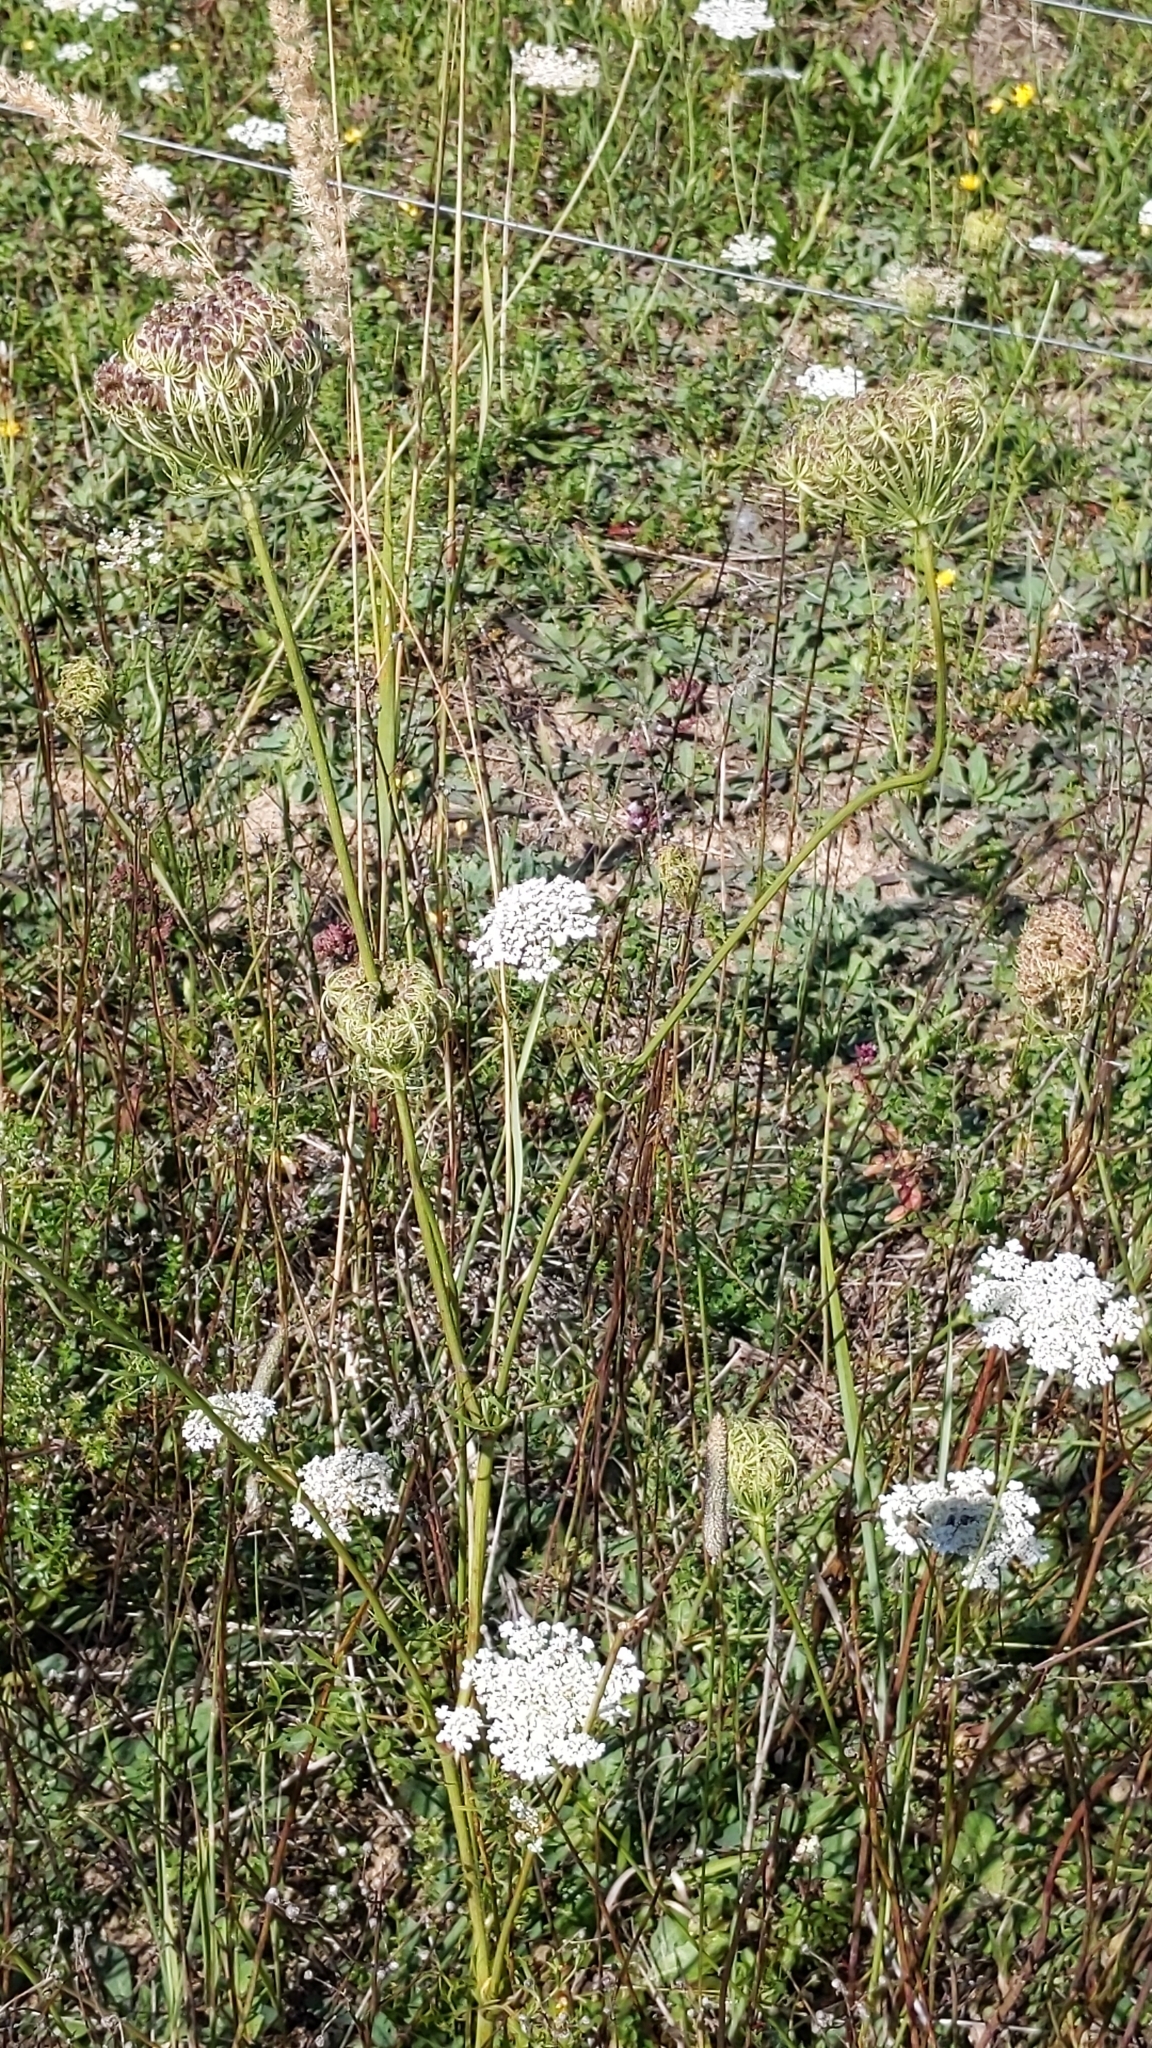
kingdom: Plantae
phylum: Tracheophyta
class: Magnoliopsida
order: Apiales
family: Apiaceae
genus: Daucus
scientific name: Daucus carota
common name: Wild carrot
